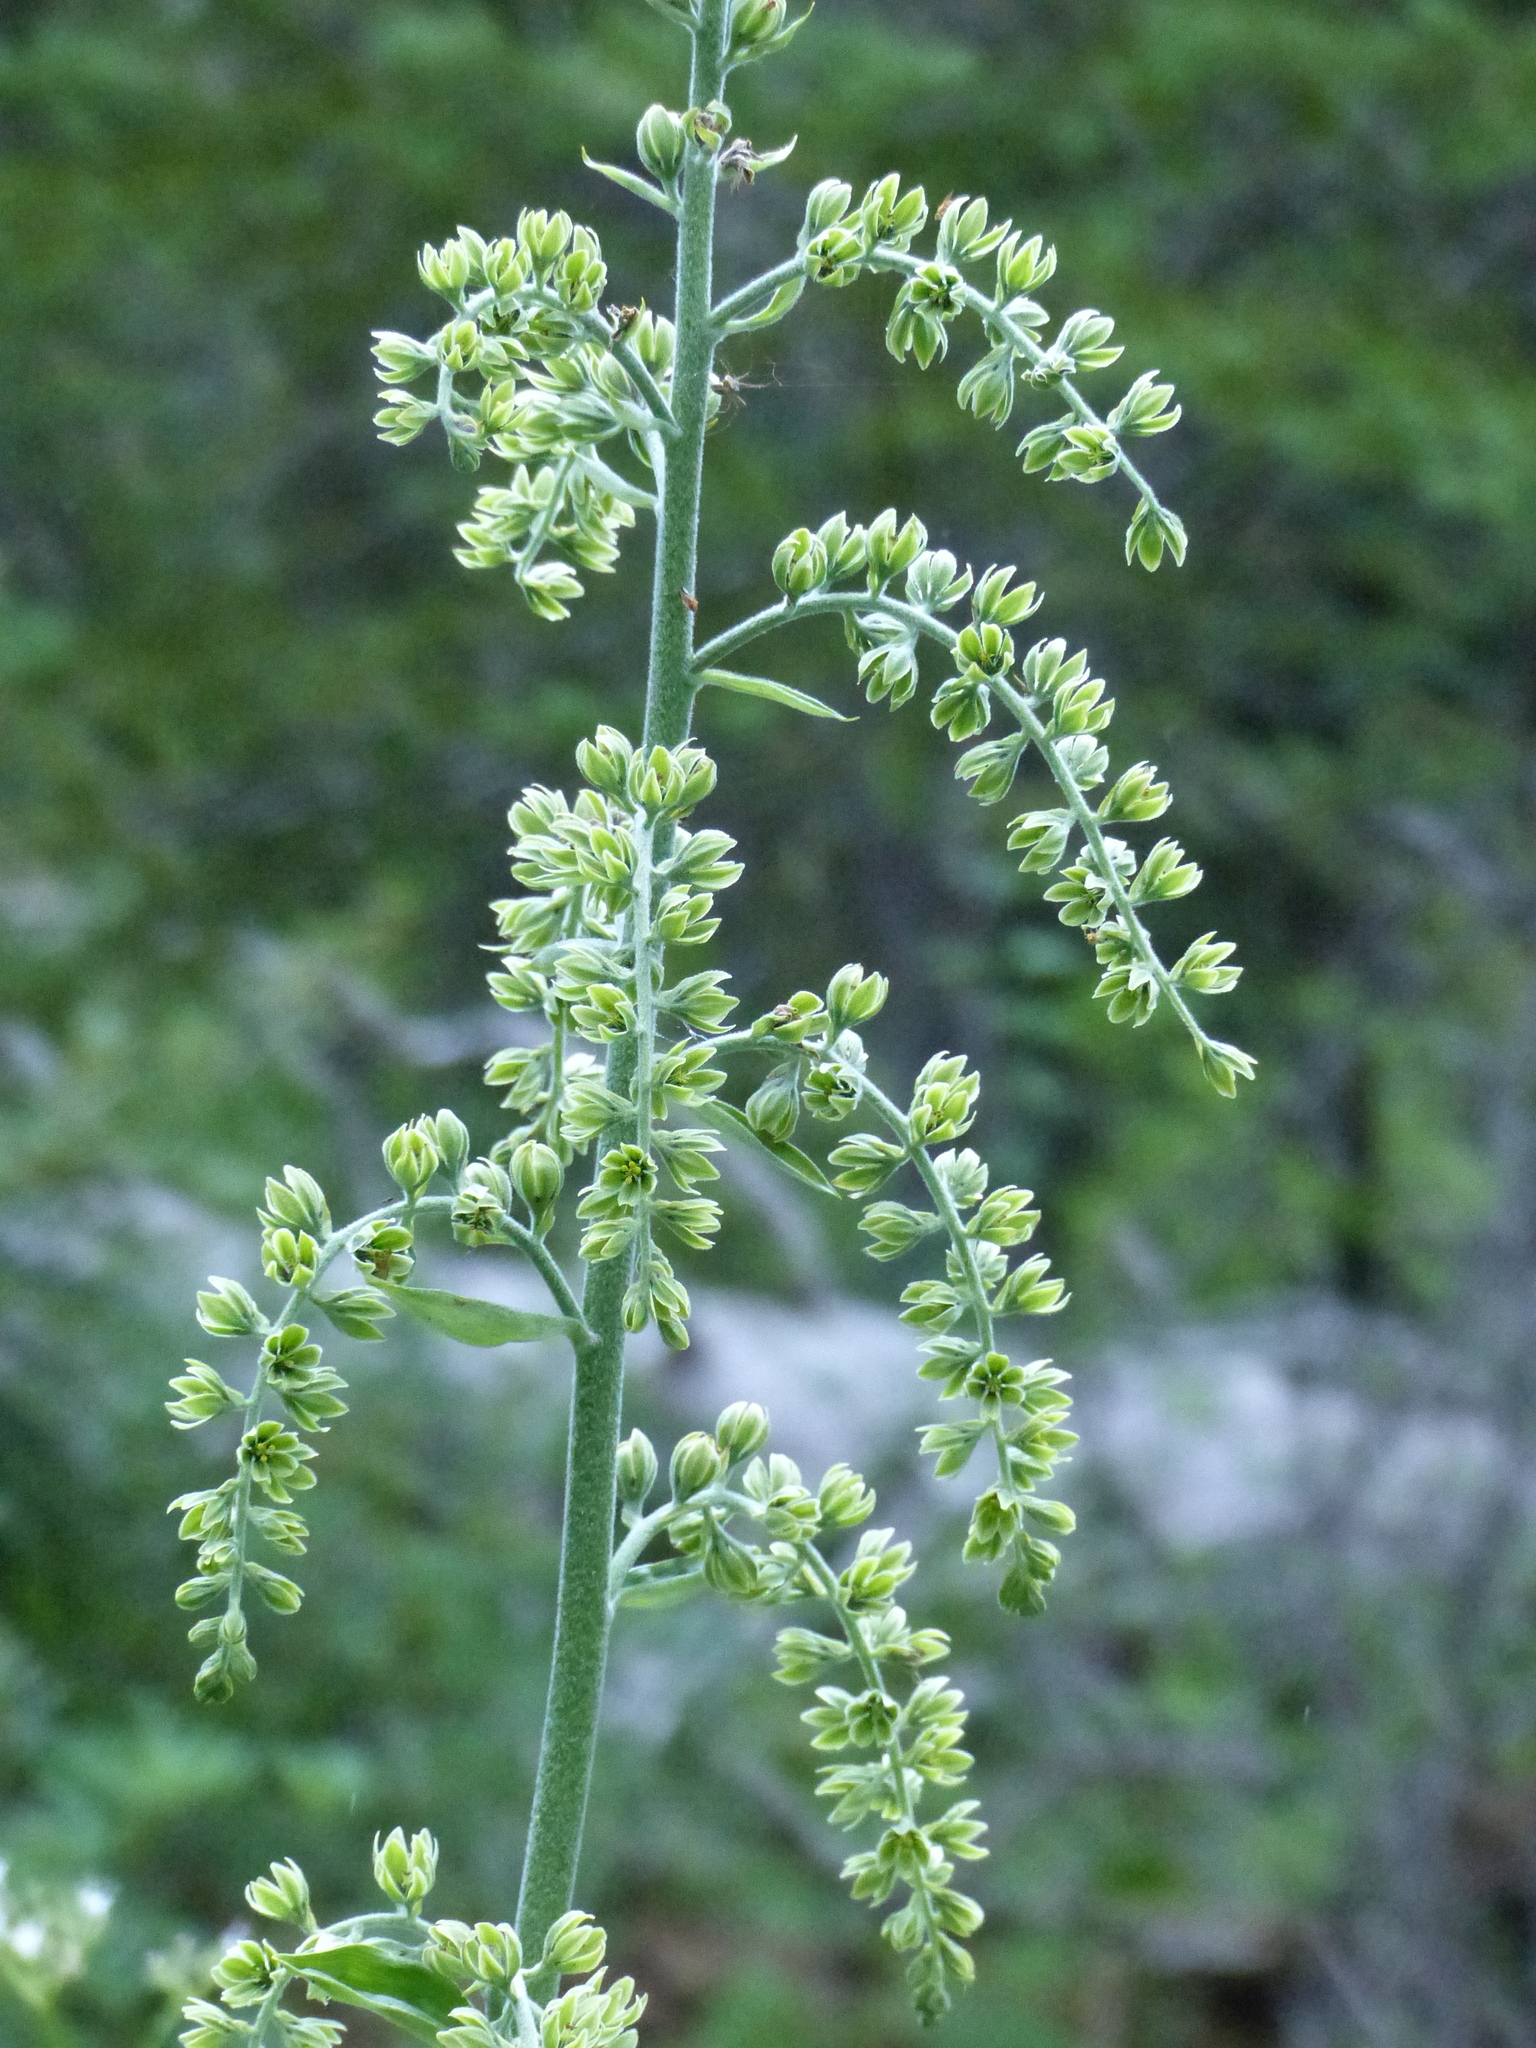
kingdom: Plantae
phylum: Tracheophyta
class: Liliopsida
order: Liliales
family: Melanthiaceae
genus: Veratrum
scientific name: Veratrum viride
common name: American false hellebore
